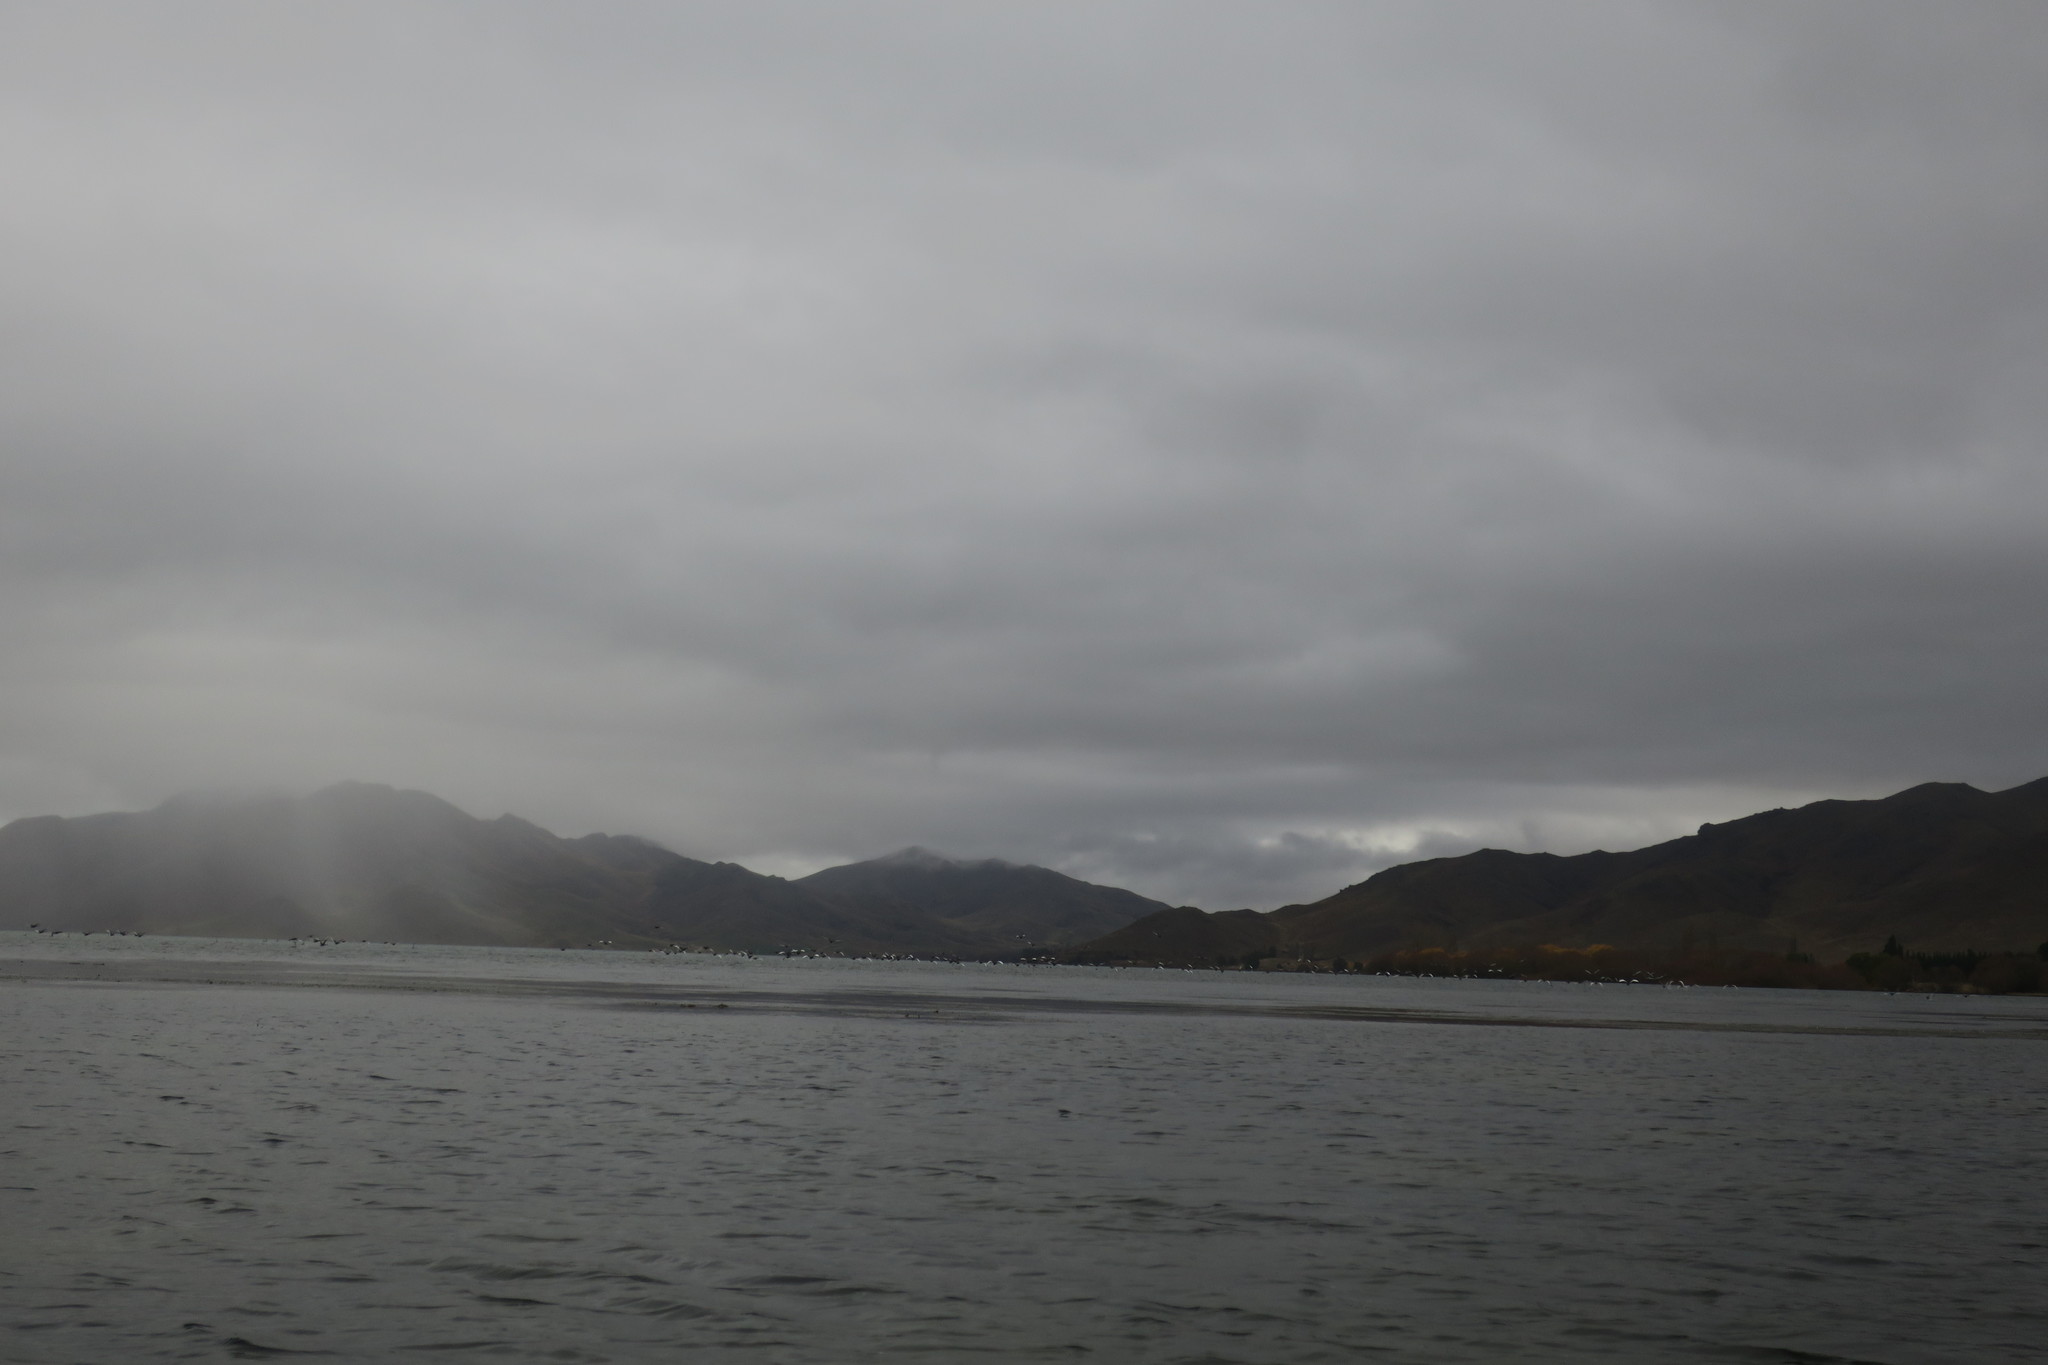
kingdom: Animalia
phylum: Chordata
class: Aves
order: Anseriformes
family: Anatidae
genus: Cygnus
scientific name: Cygnus atratus
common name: Black swan
